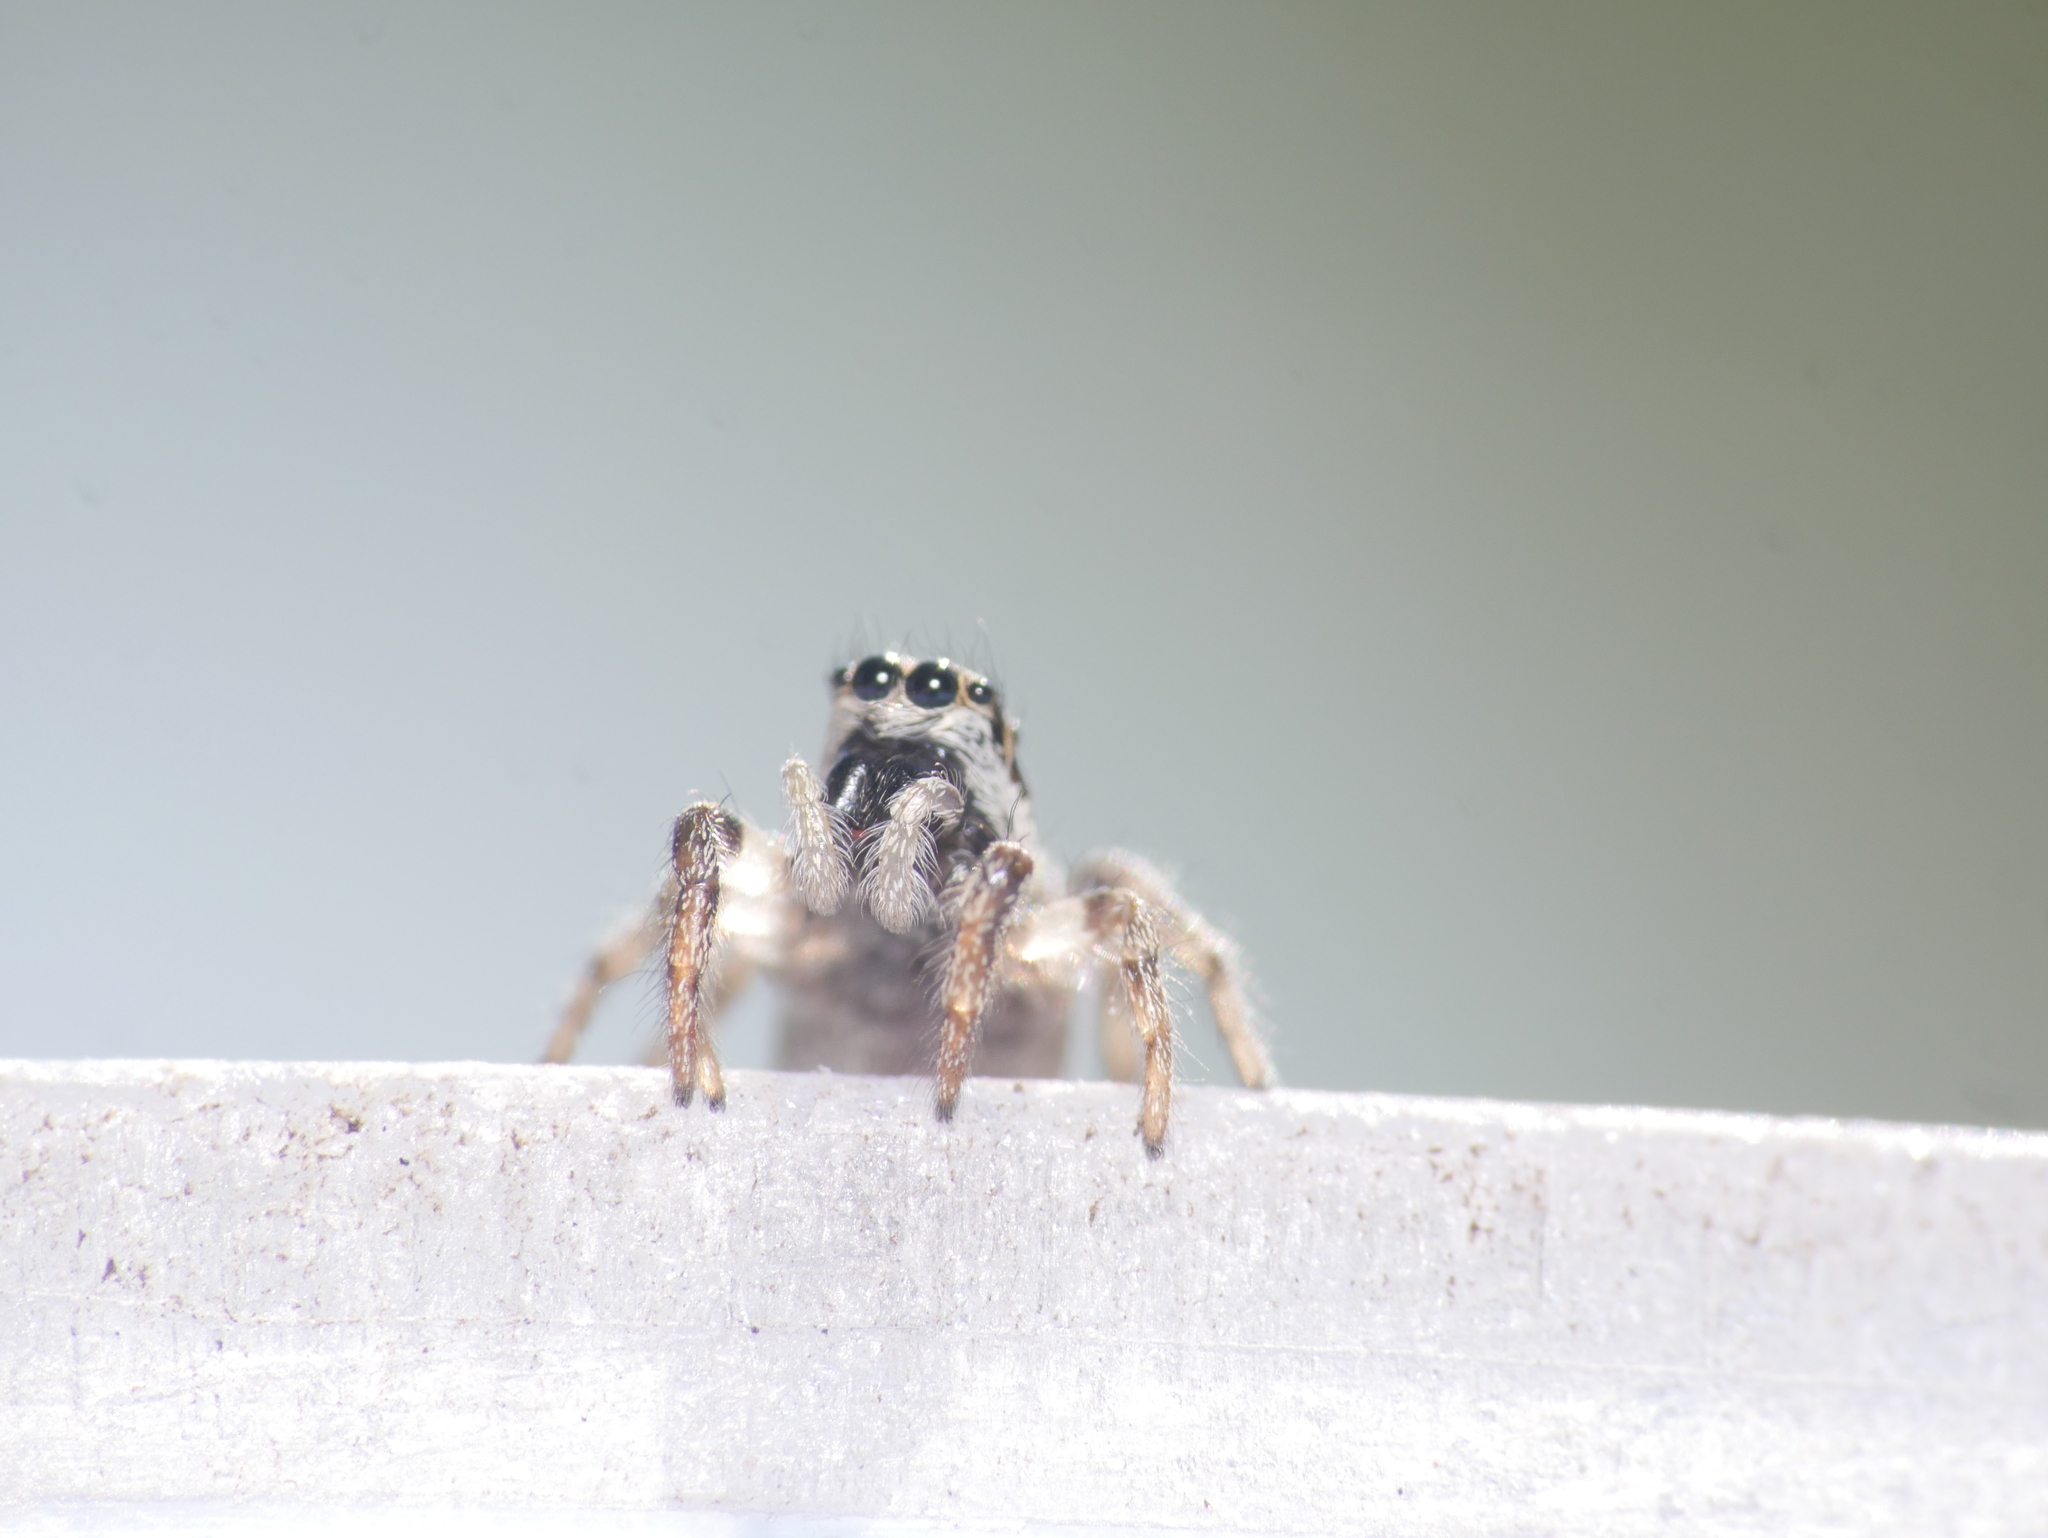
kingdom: Animalia
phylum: Arthropoda
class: Arachnida
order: Araneae
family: Salticidae
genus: Salticus
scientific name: Salticus scenicus
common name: Zebra jumper
